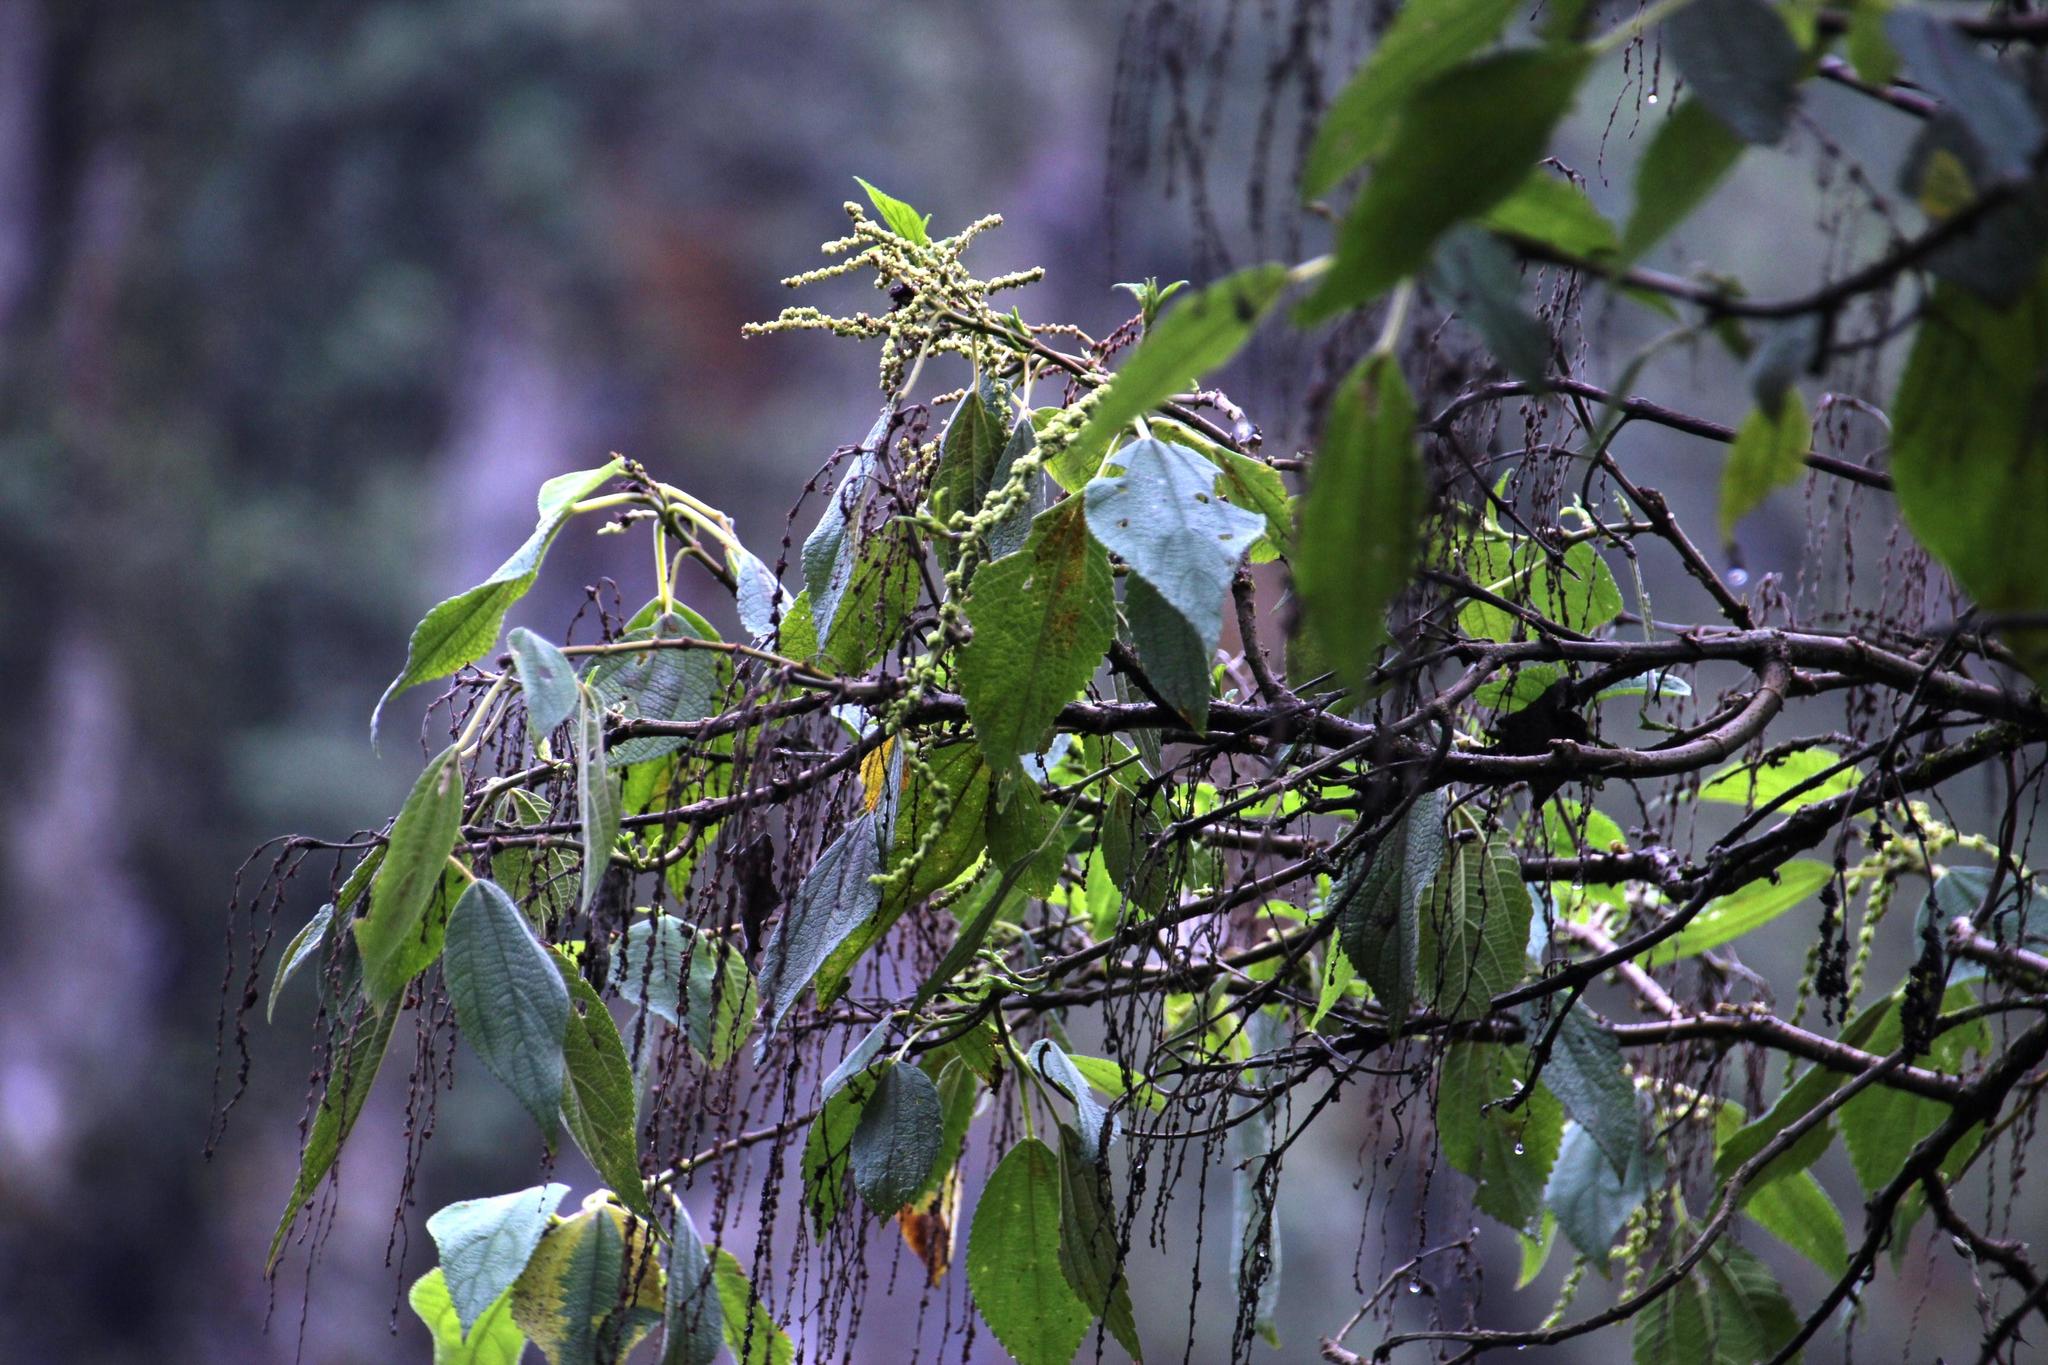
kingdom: Plantae
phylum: Tracheophyta
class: Magnoliopsida
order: Rosales
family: Urticaceae
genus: Boehmeria
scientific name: Boehmeria caudata
